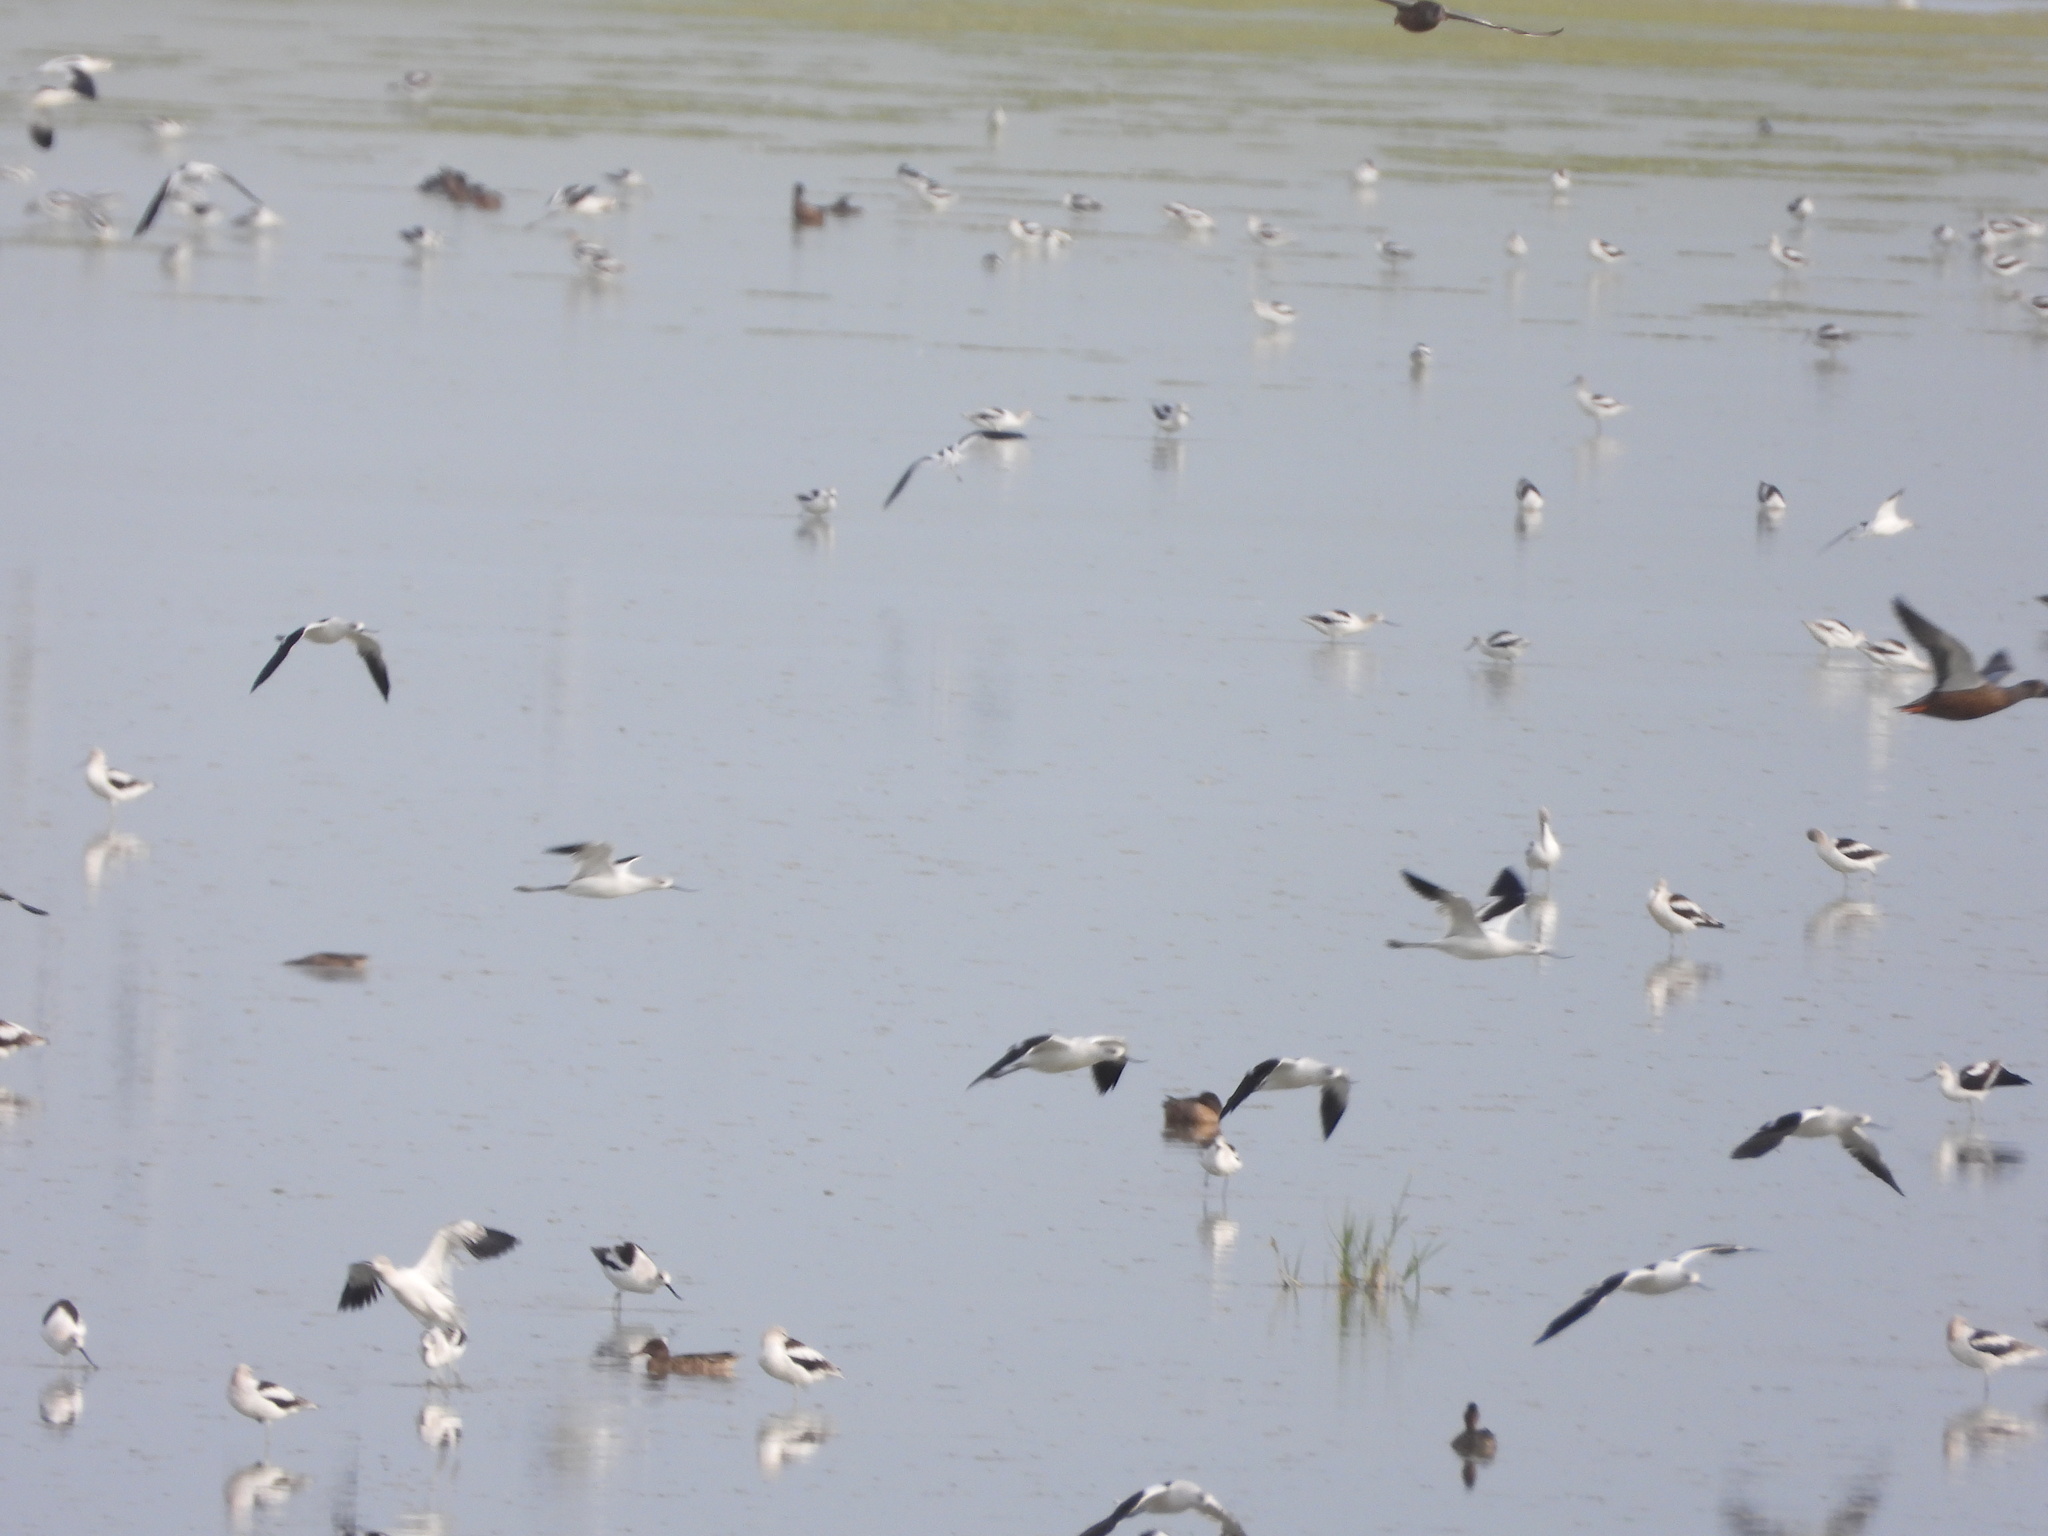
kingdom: Animalia
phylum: Chordata
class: Aves
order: Charadriiformes
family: Recurvirostridae
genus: Recurvirostra
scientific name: Recurvirostra americana
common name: American avocet
